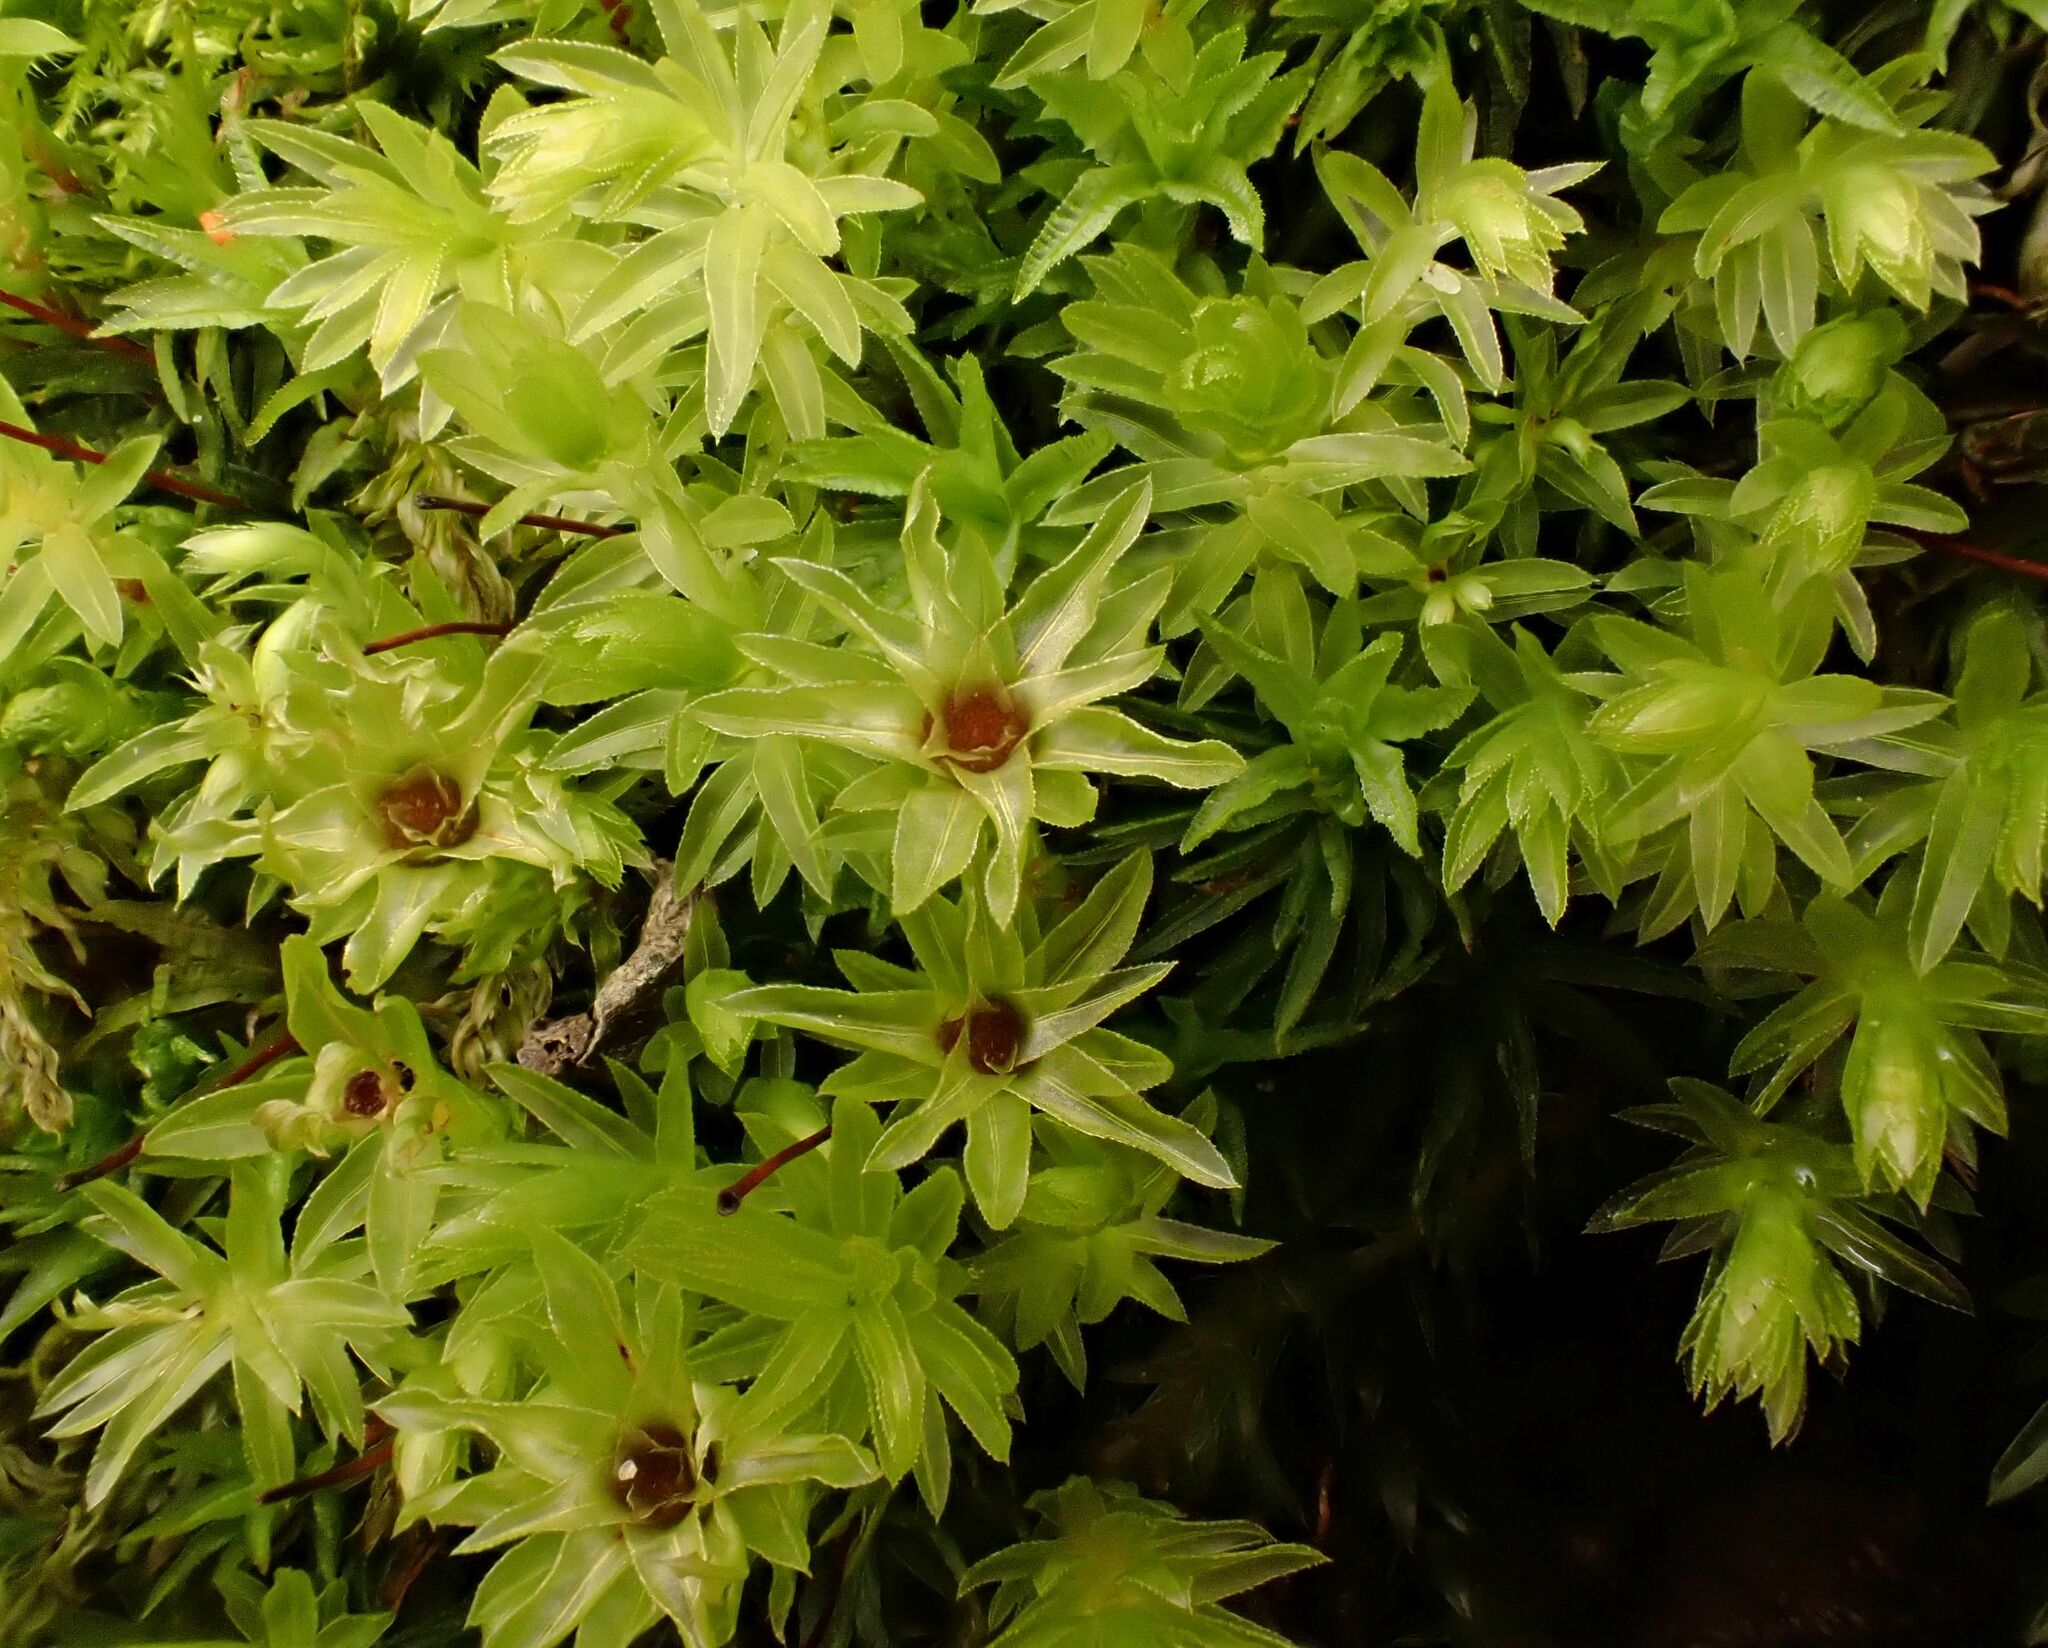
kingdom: Plantae
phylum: Bryophyta
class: Bryopsida
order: Bryales
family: Mniaceae
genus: Mnium
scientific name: Mnium hornum
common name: Swan's-neck leafy moss
